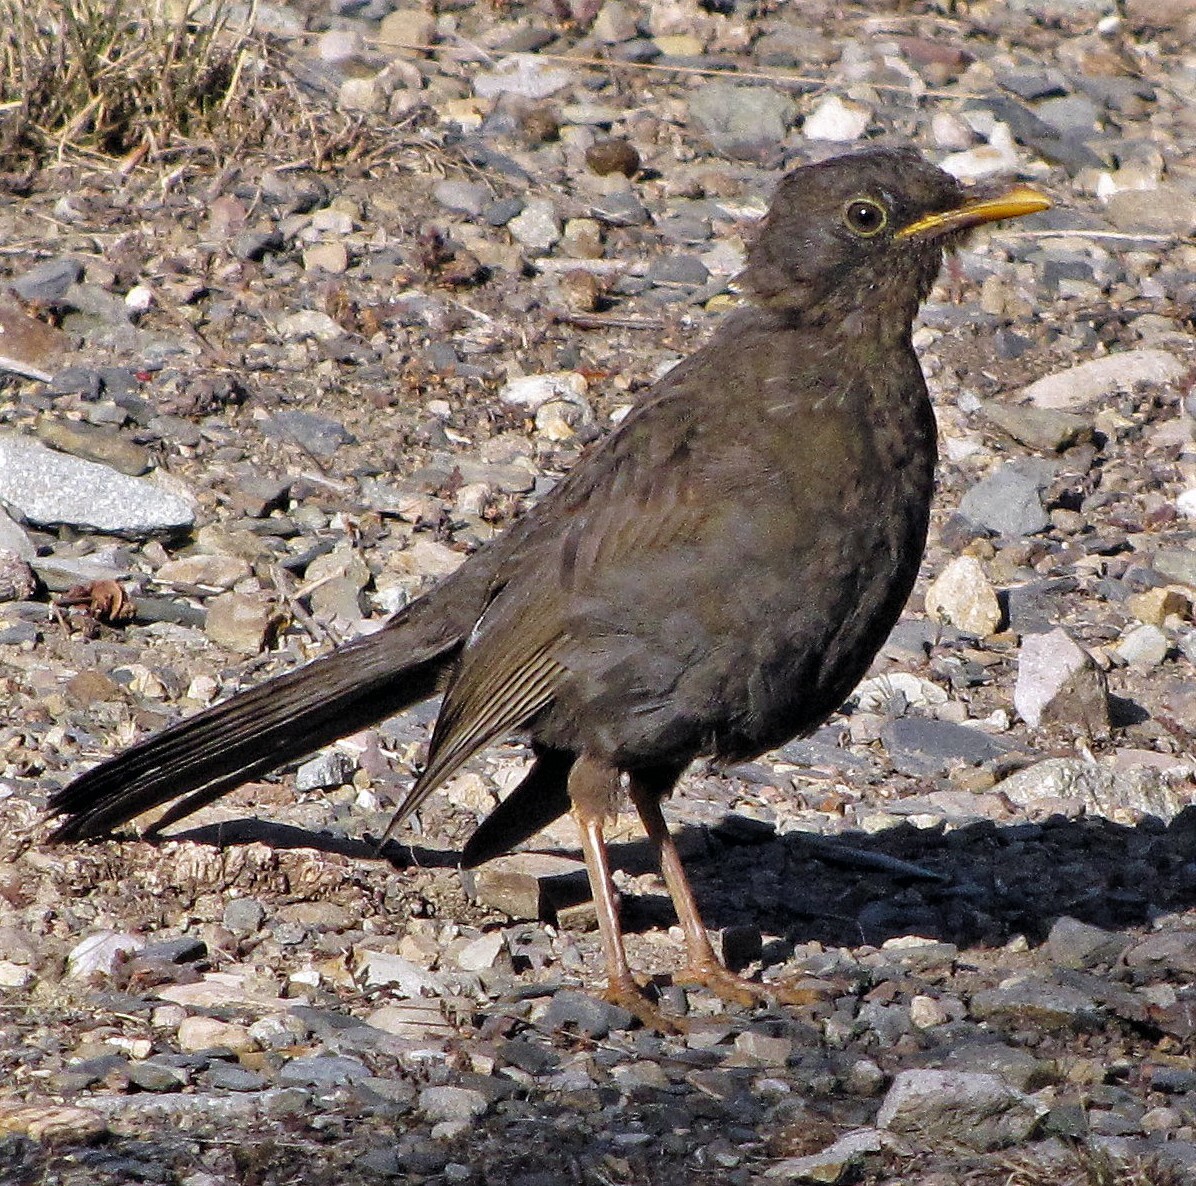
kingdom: Animalia
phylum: Chordata
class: Aves
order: Passeriformes
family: Turdidae
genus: Turdus
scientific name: Turdus chiguanco
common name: Chiguanco thrush
